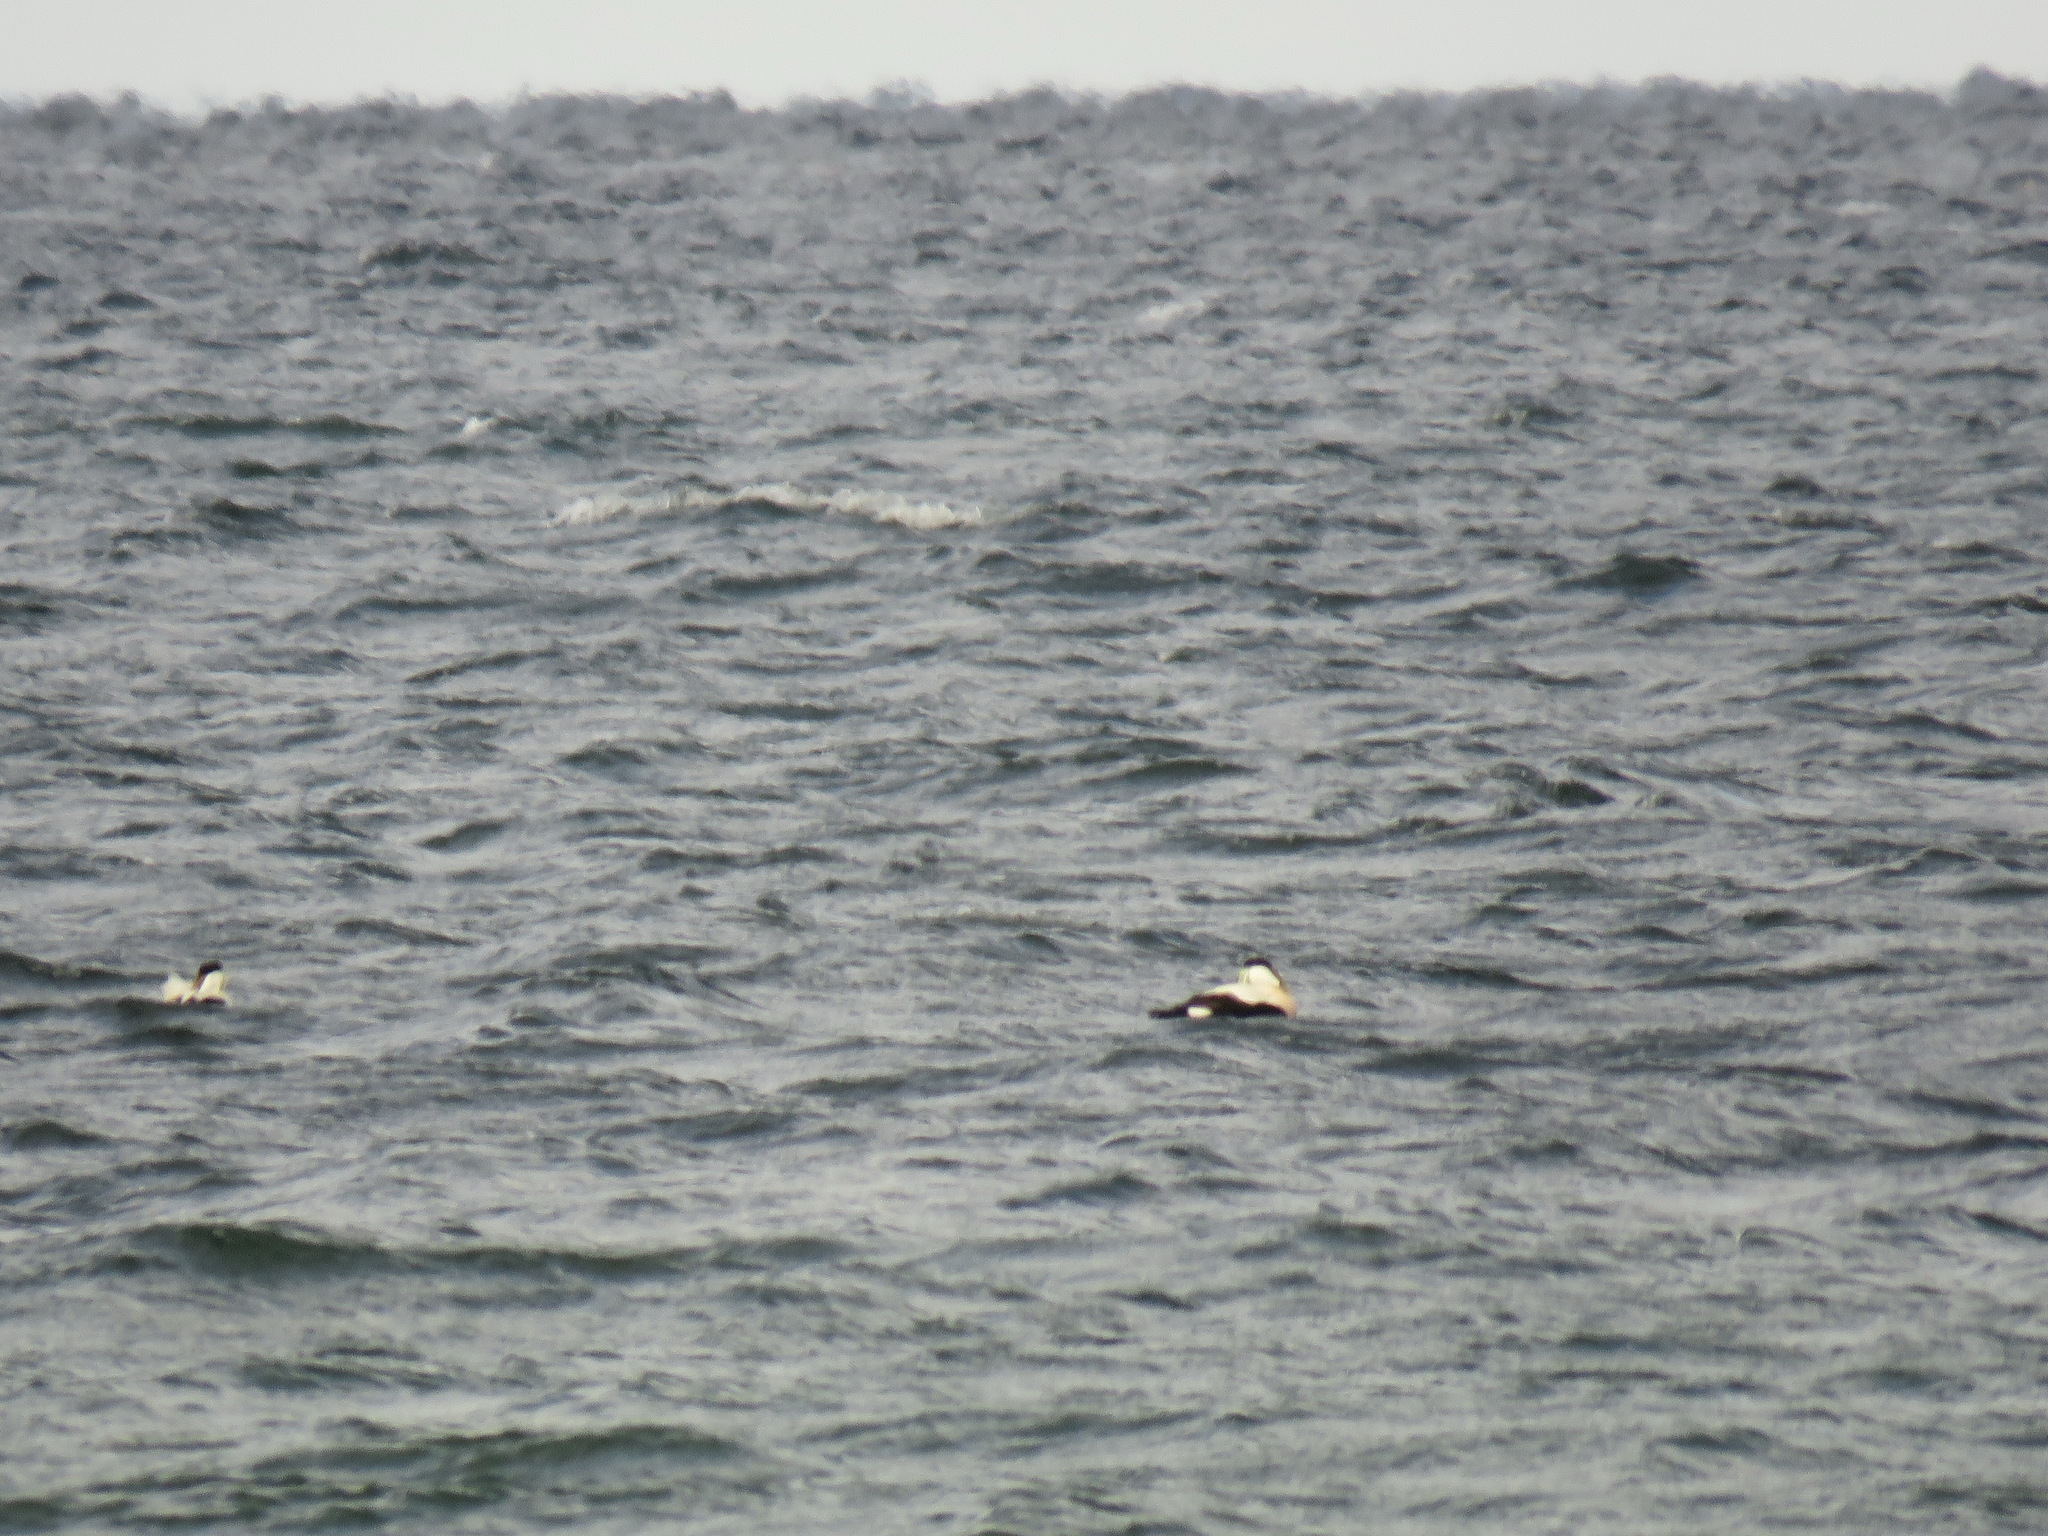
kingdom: Animalia
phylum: Chordata
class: Aves
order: Anseriformes
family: Anatidae
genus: Somateria
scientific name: Somateria mollissima
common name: Common eider
